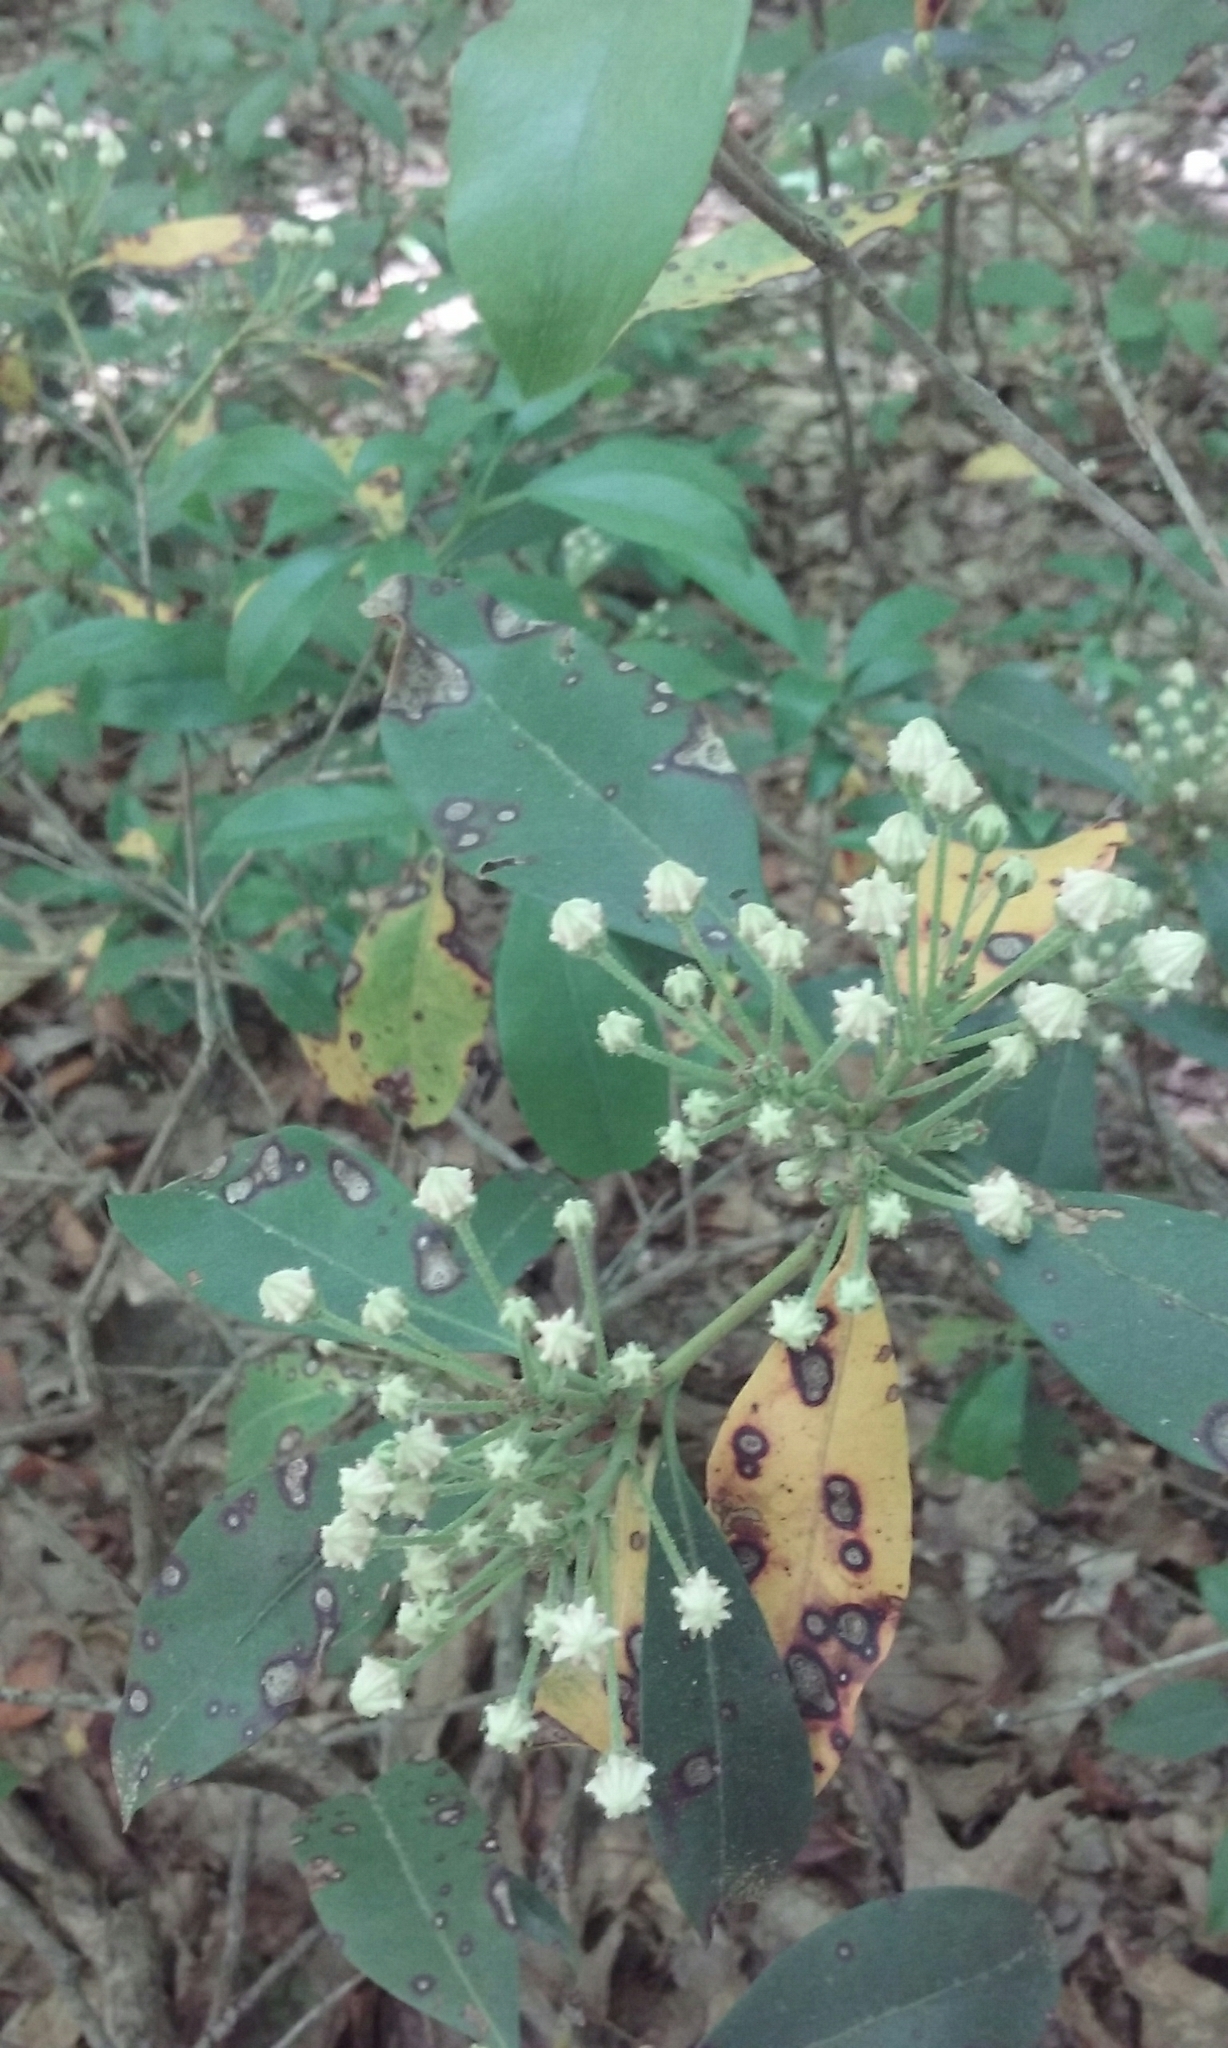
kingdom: Plantae
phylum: Tracheophyta
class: Magnoliopsida
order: Ericales
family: Ericaceae
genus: Kalmia
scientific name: Kalmia latifolia
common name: Mountain-laurel
